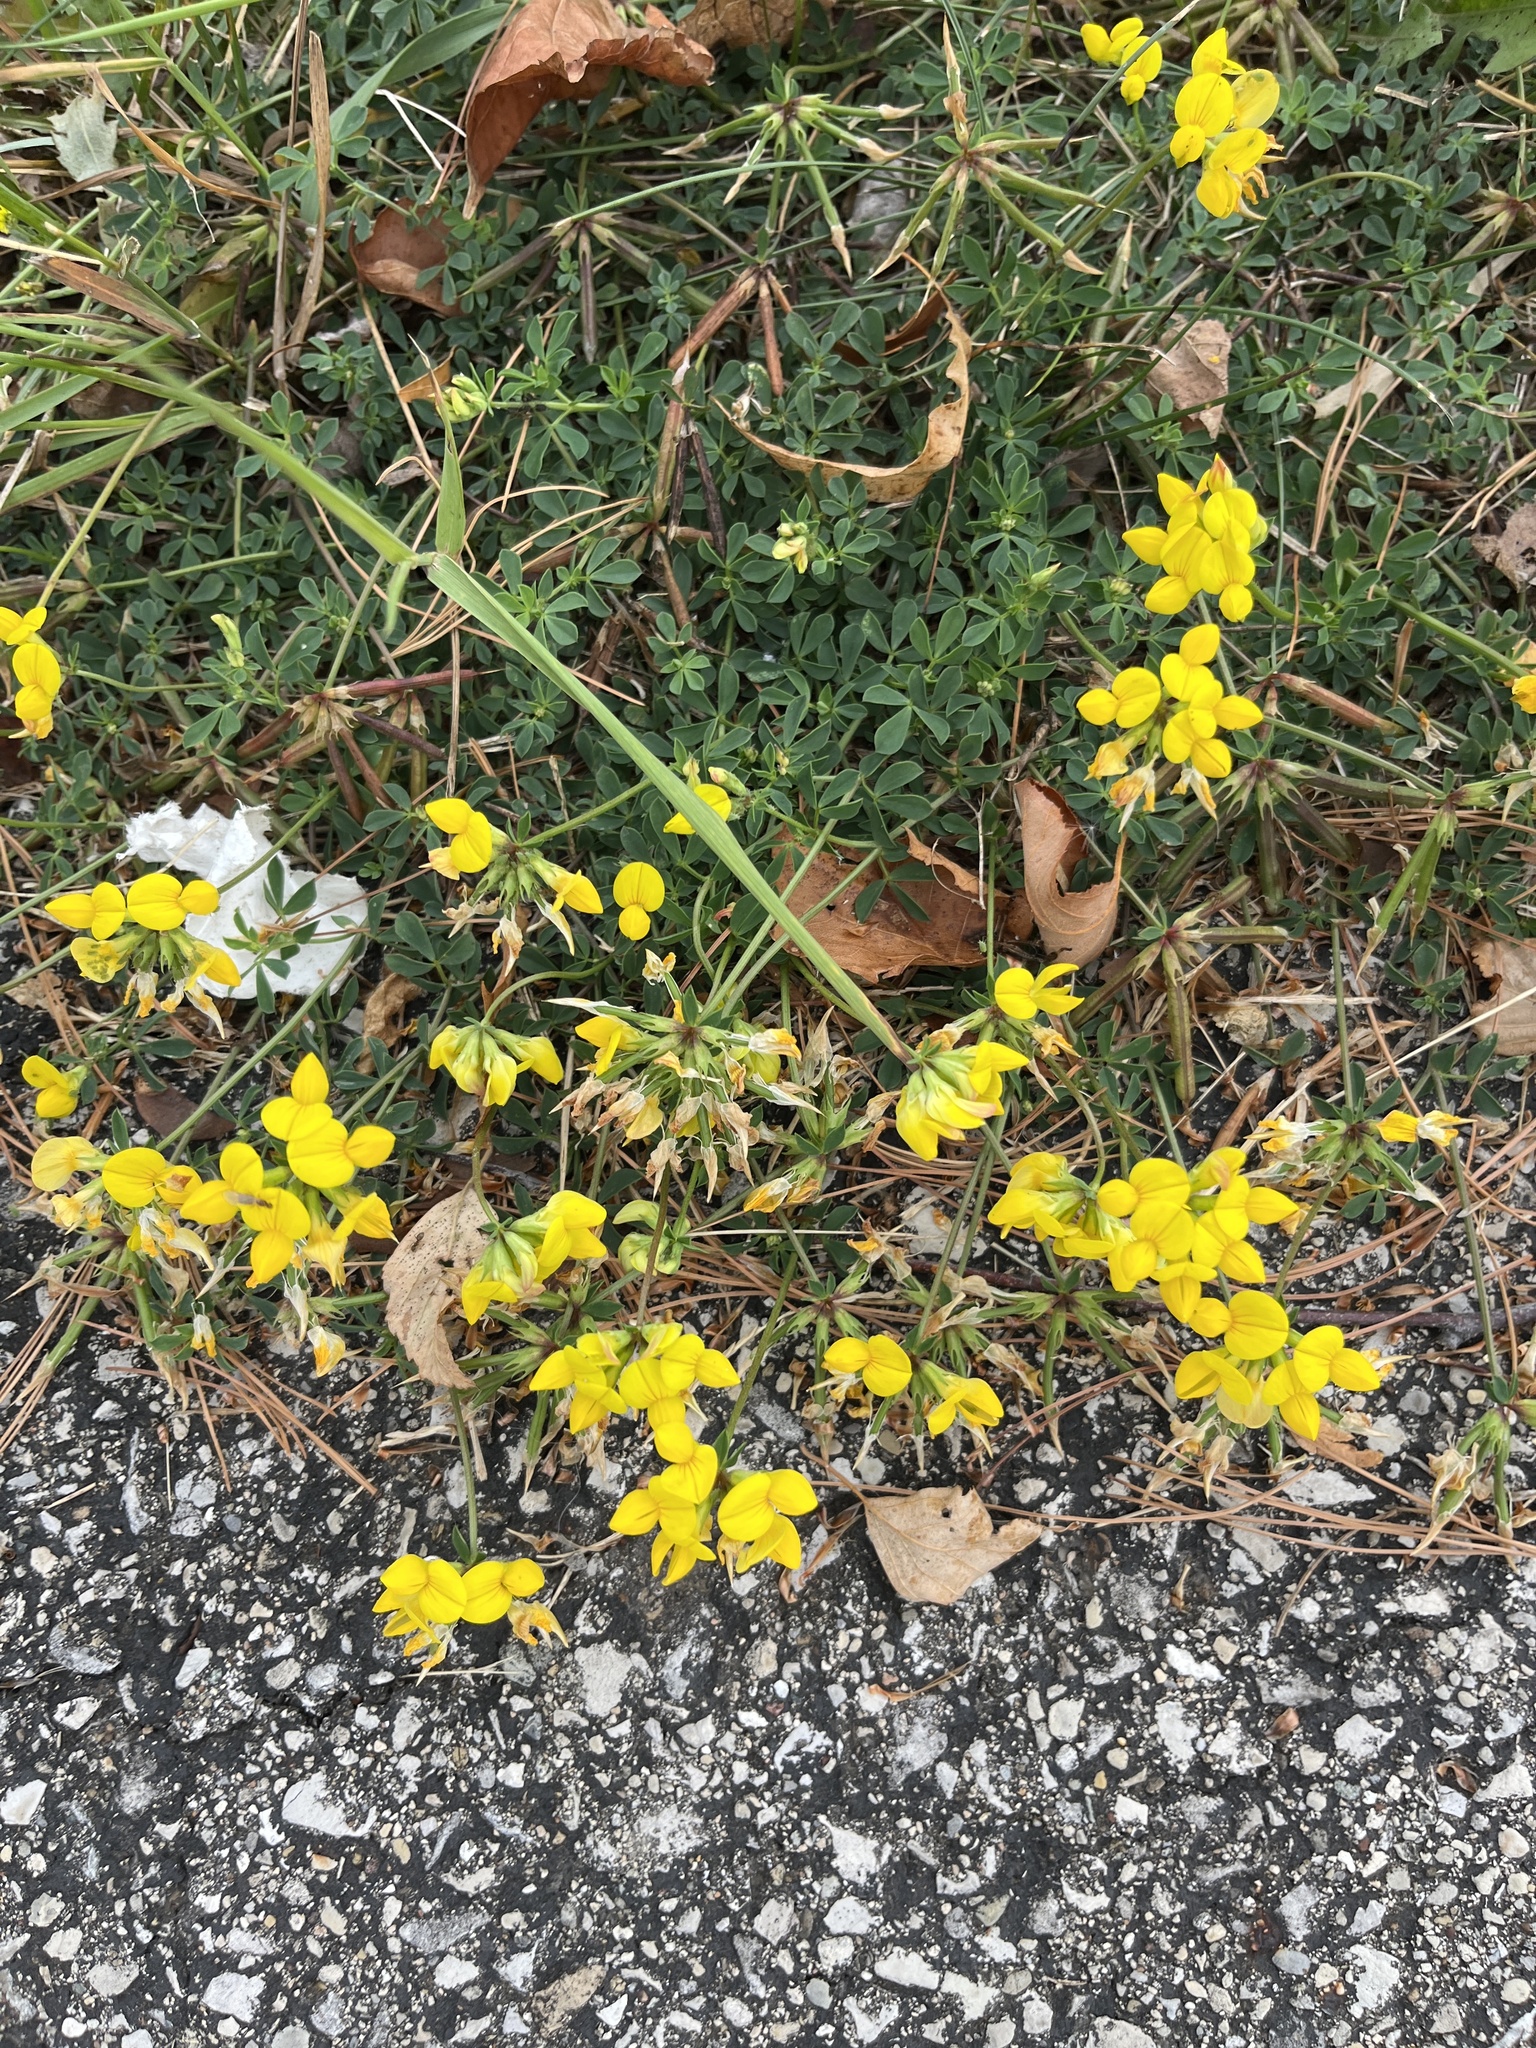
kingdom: Plantae
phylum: Tracheophyta
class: Magnoliopsida
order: Fabales
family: Fabaceae
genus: Lotus
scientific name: Lotus corniculatus
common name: Common bird's-foot-trefoil
